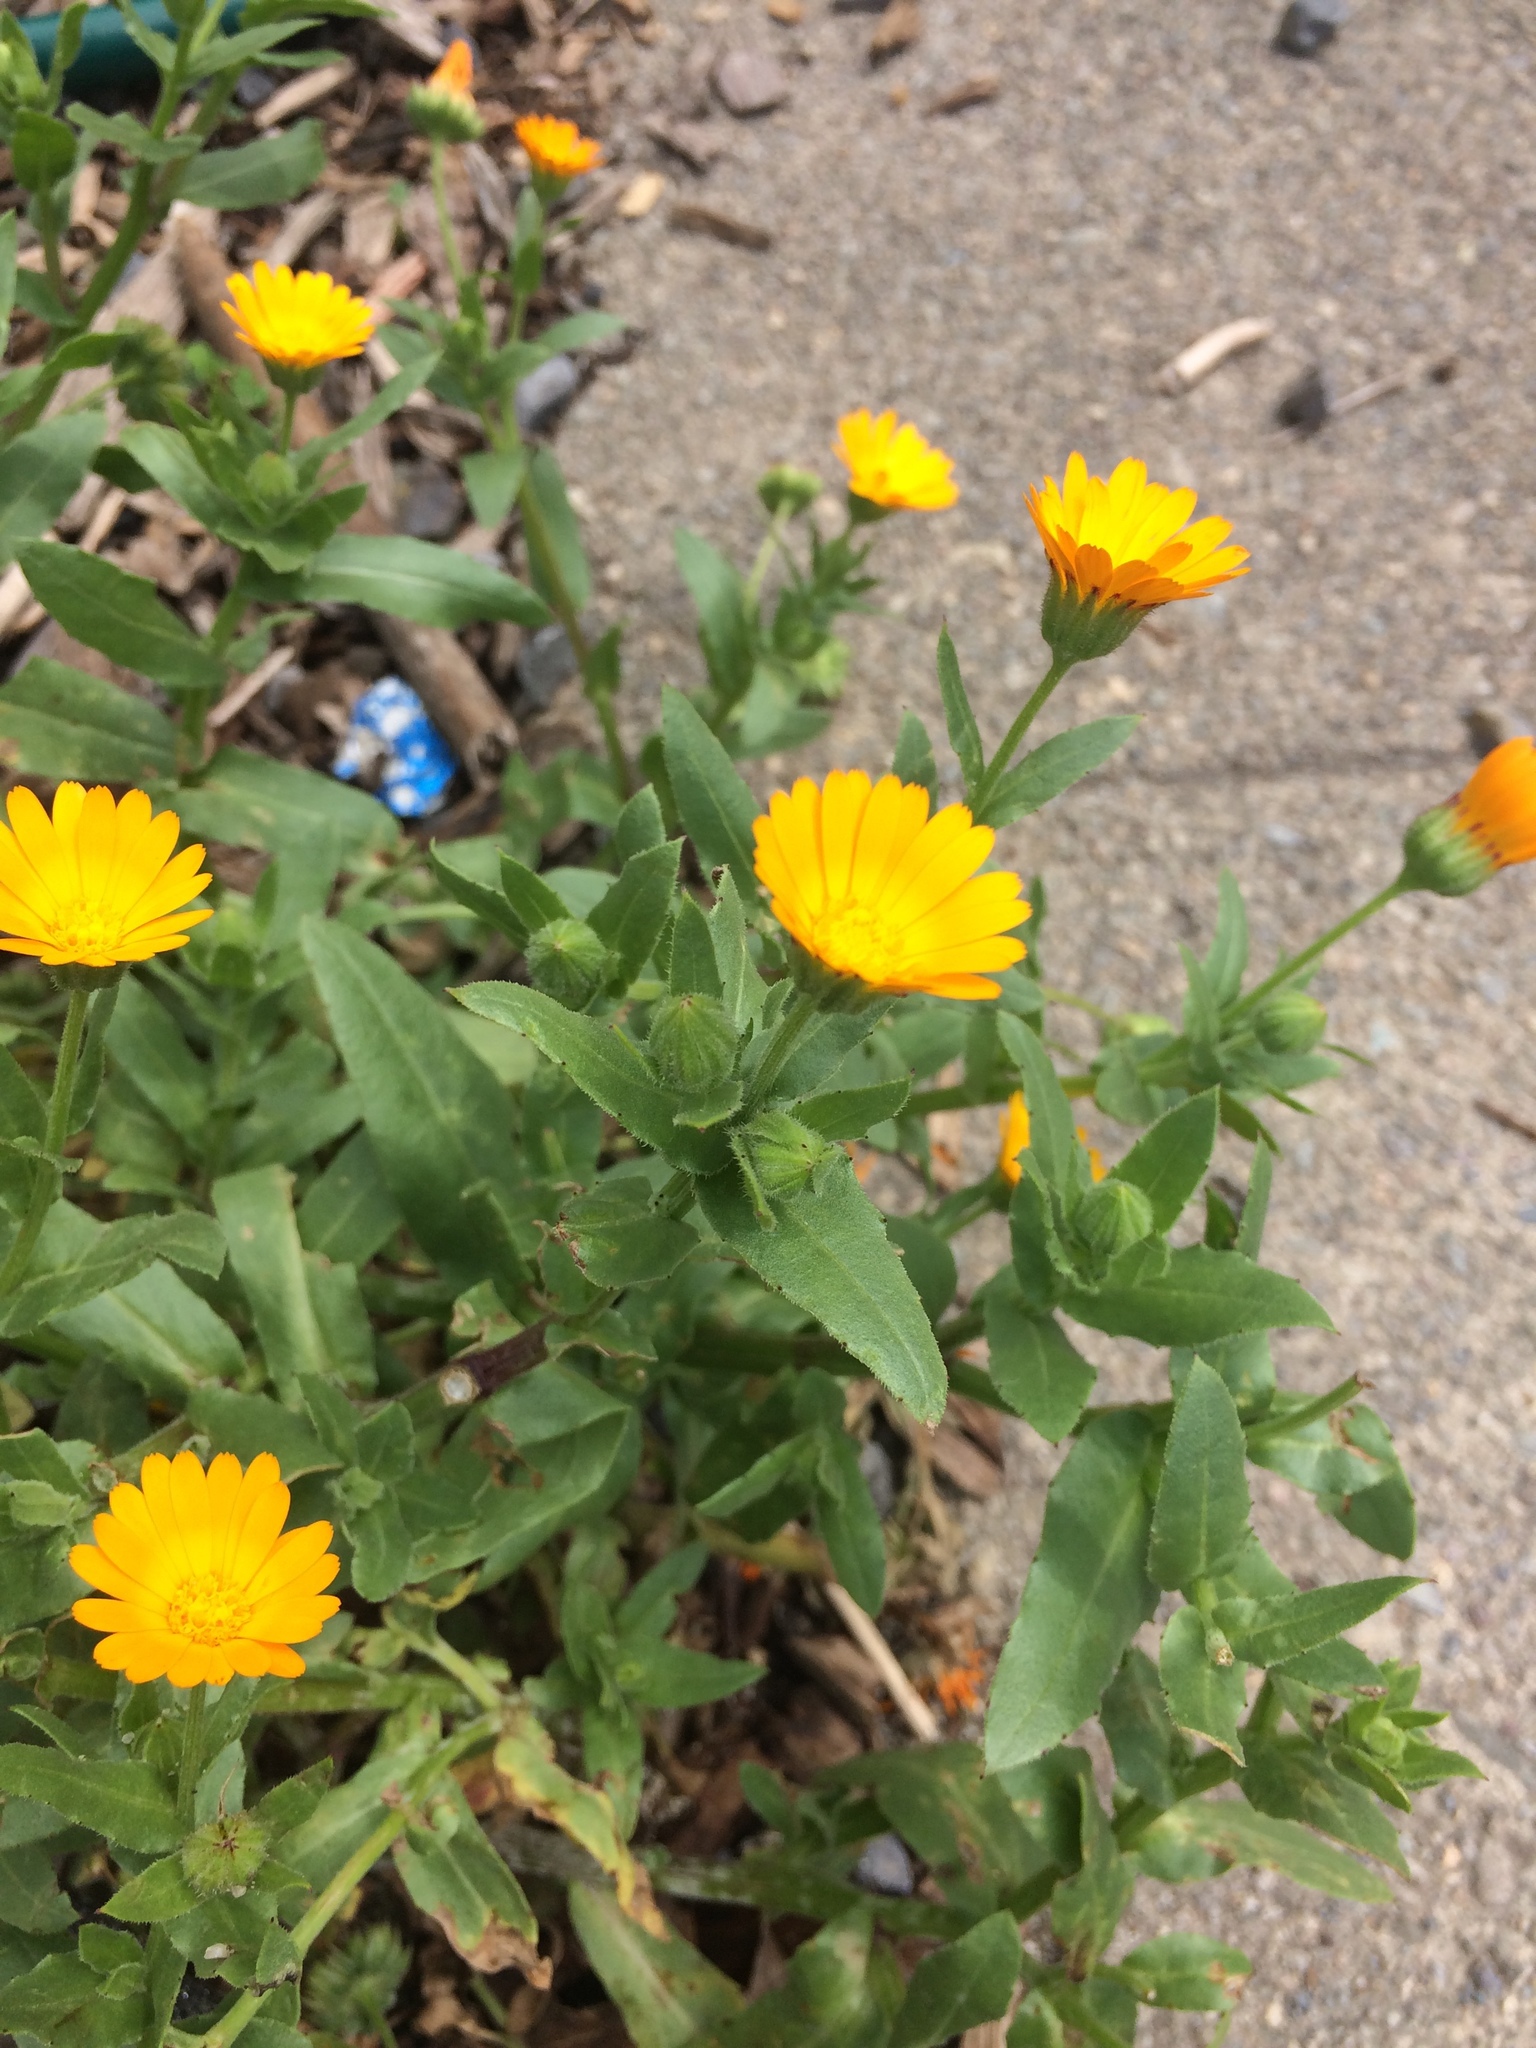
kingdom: Plantae
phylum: Tracheophyta
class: Magnoliopsida
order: Asterales
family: Asteraceae
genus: Calendula
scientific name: Calendula arvensis
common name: Field marigold
